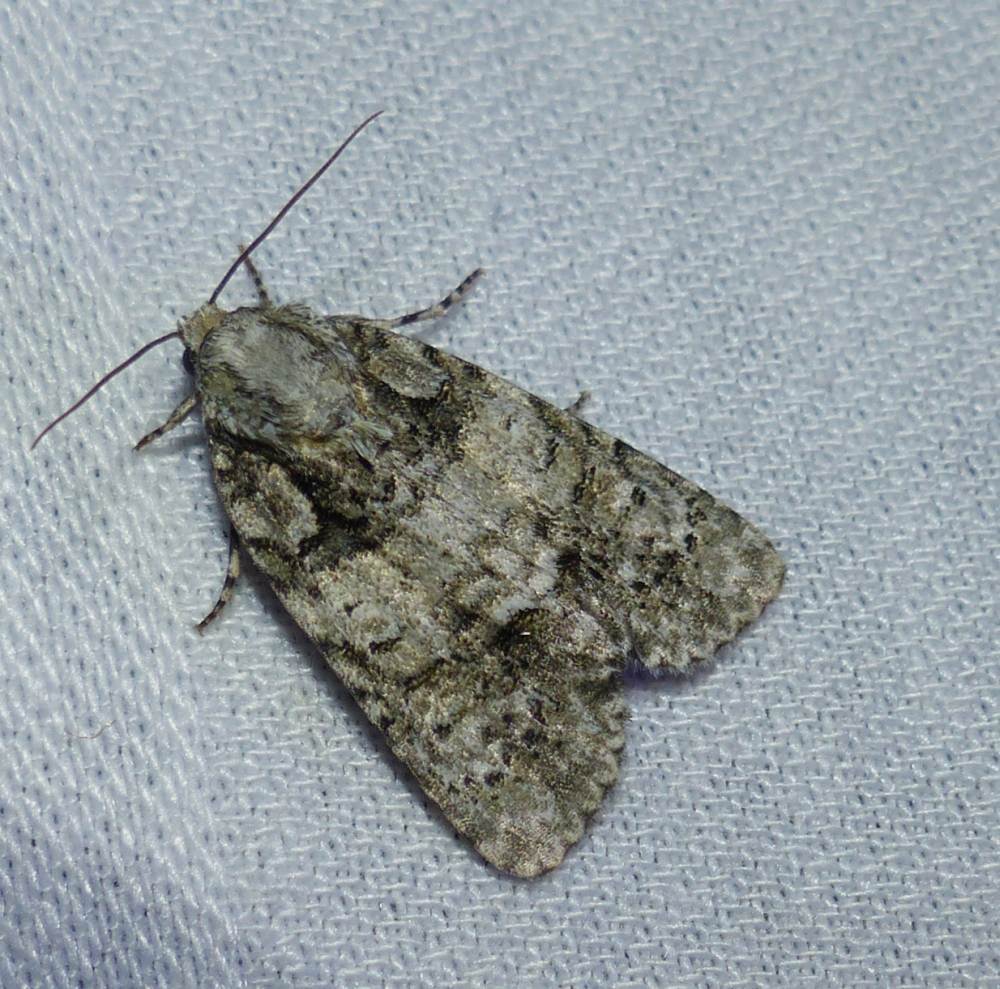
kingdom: Animalia
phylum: Arthropoda
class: Insecta
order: Lepidoptera
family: Noctuidae
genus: Acronicta
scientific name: Acronicta increta
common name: Eclipsed oak dagger
